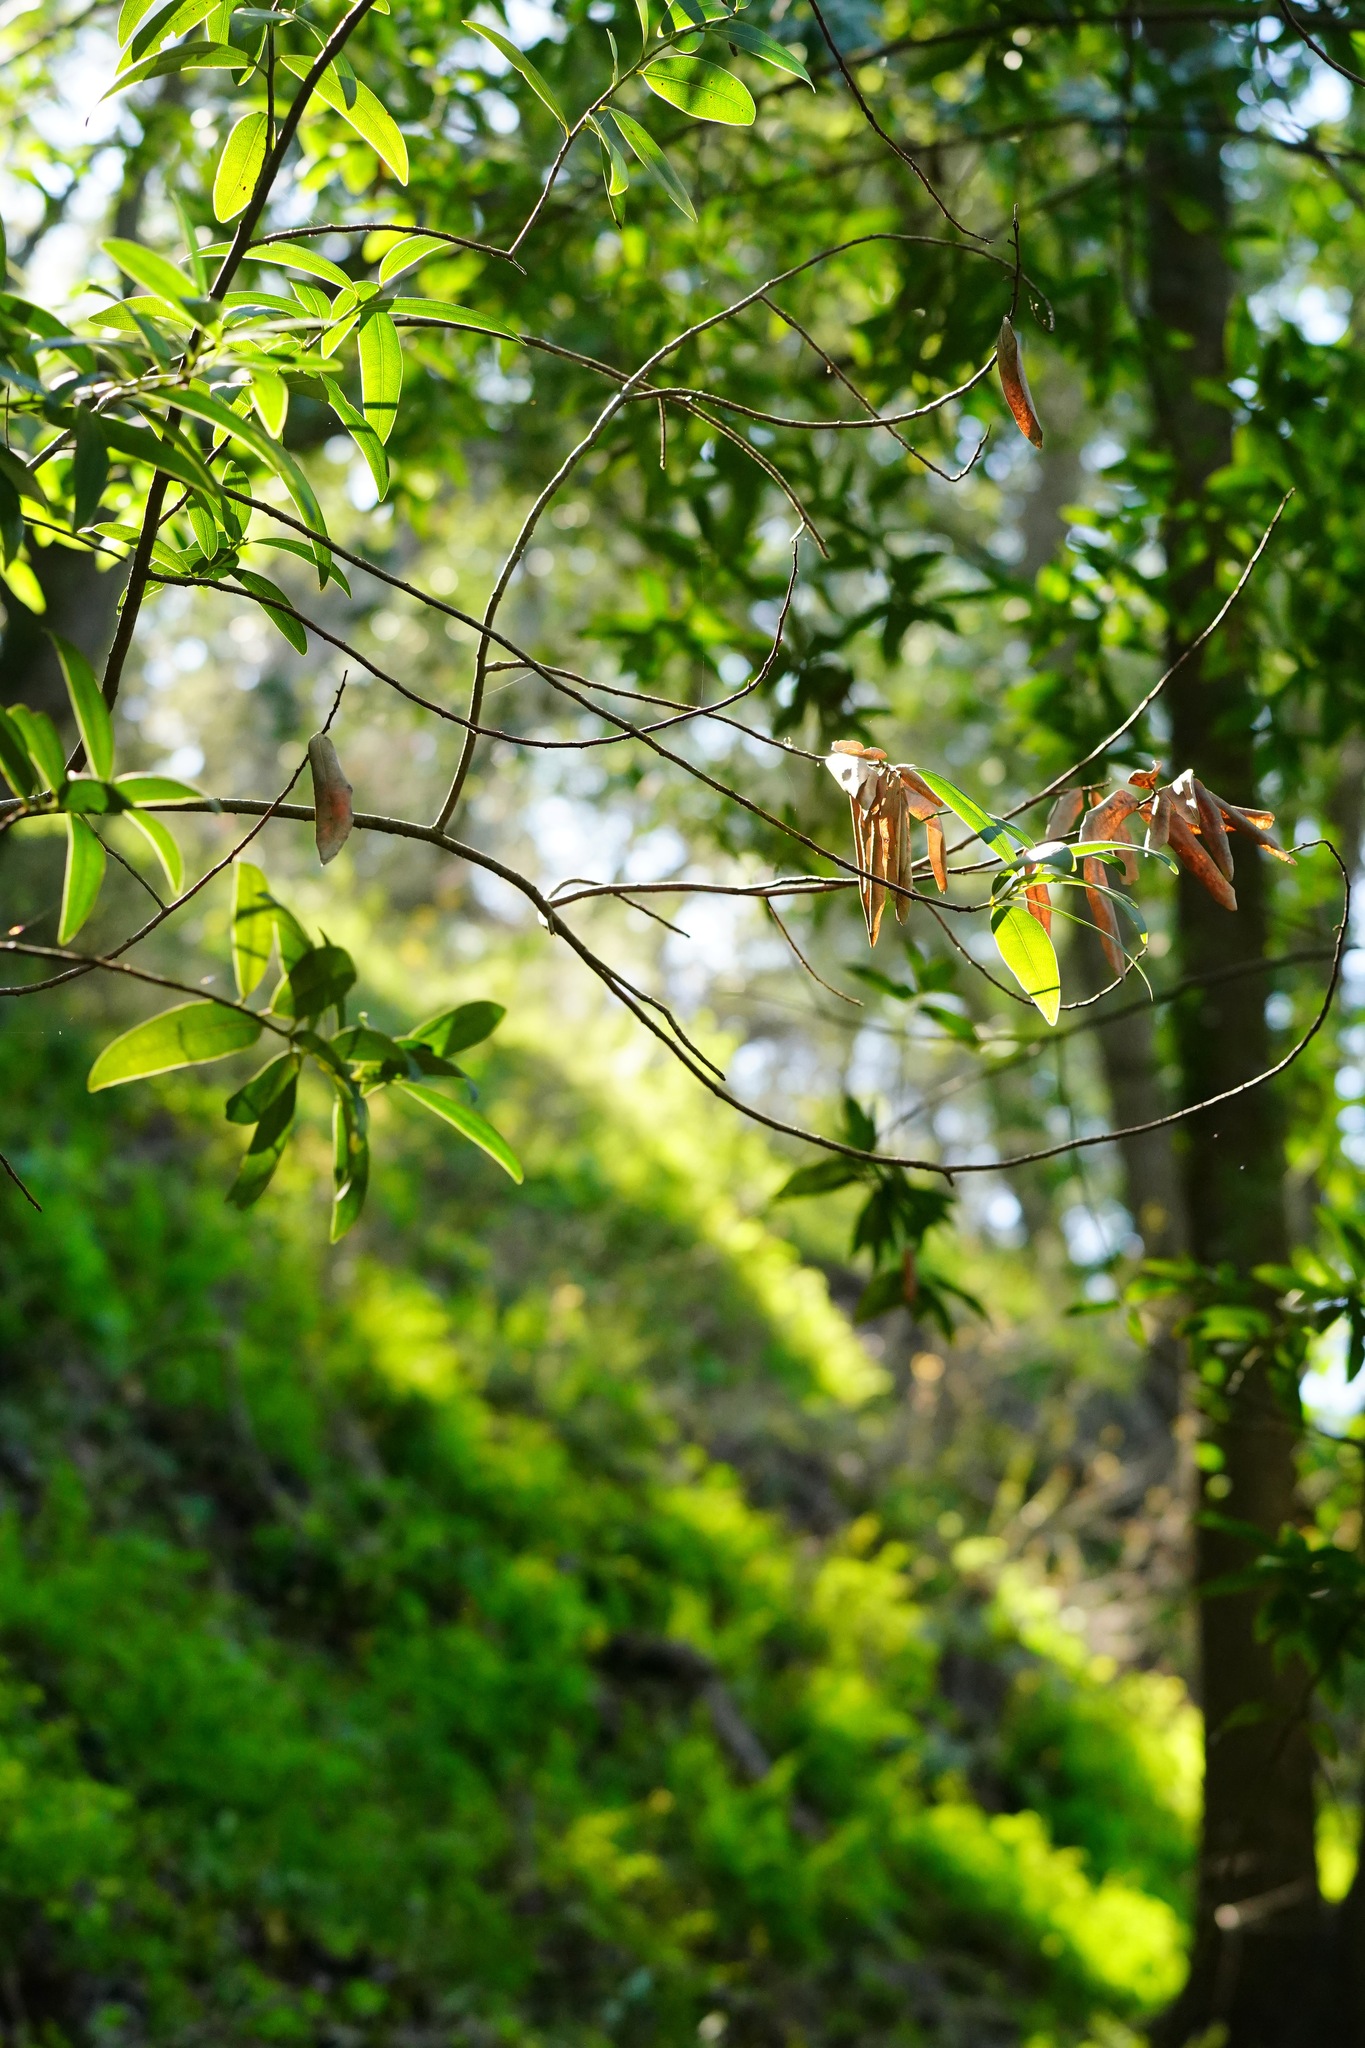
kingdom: Plantae
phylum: Tracheophyta
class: Magnoliopsida
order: Laurales
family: Lauraceae
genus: Umbellularia
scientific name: Umbellularia californica
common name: California bay
